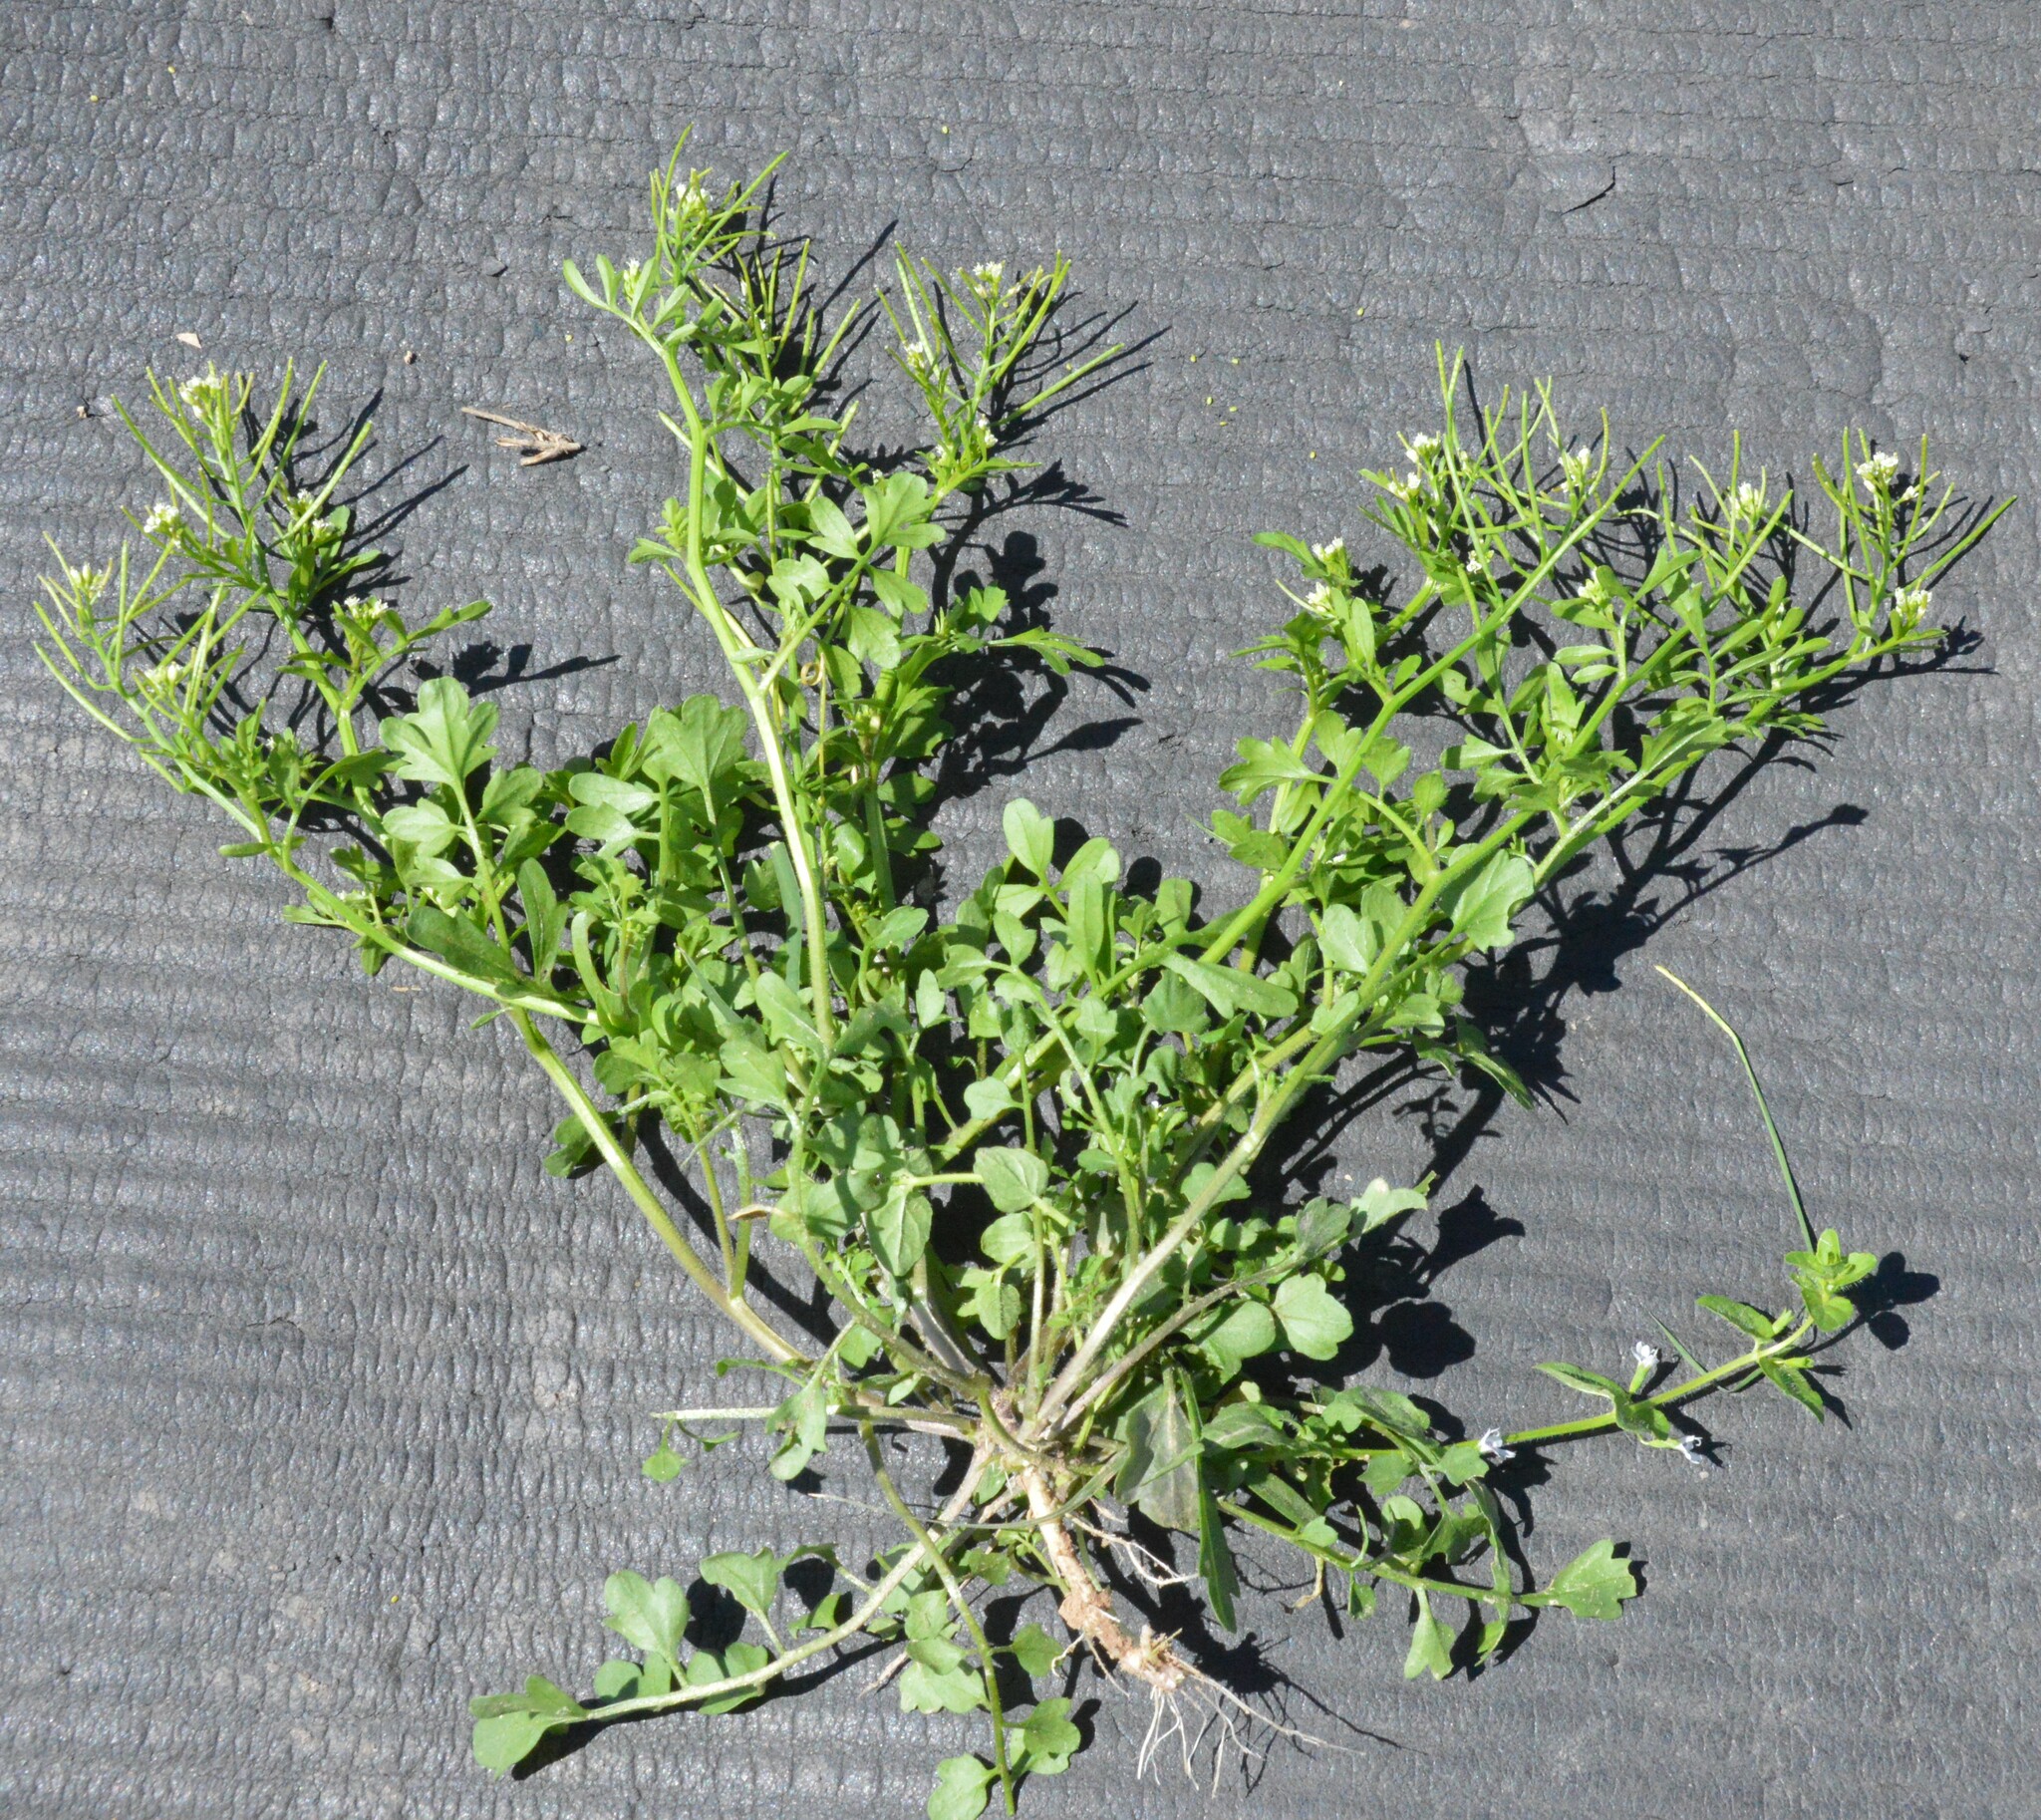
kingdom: Plantae
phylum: Tracheophyta
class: Magnoliopsida
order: Brassicales
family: Brassicaceae
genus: Cardamine
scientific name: Cardamine hirsuta
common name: Hairy bittercress
